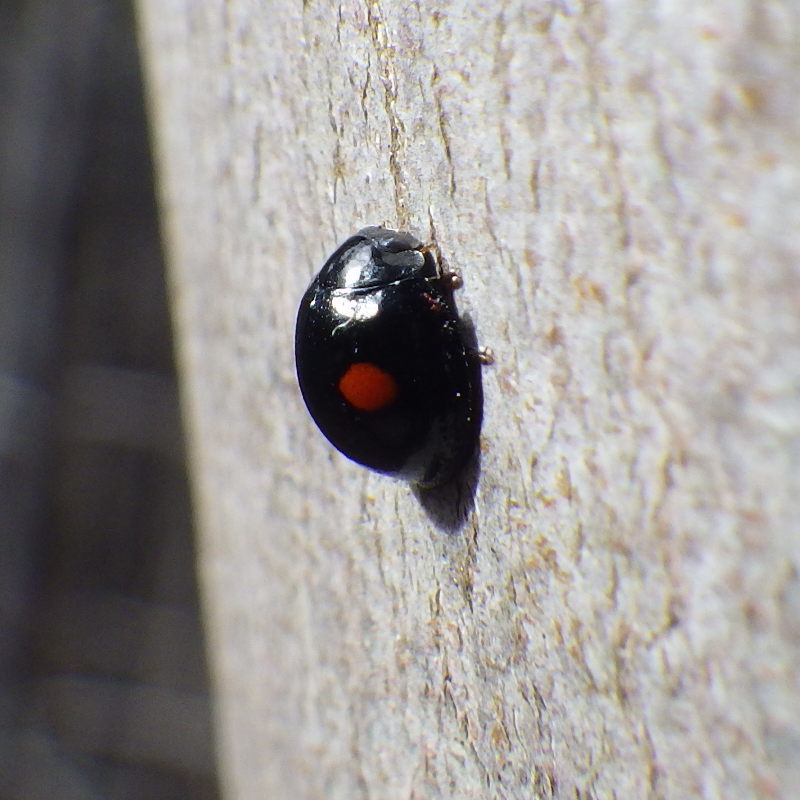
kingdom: Animalia
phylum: Arthropoda
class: Insecta
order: Coleoptera
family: Coccinellidae
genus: Chilocorus
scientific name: Chilocorus stigma
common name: Twicestabbed lady beetle
